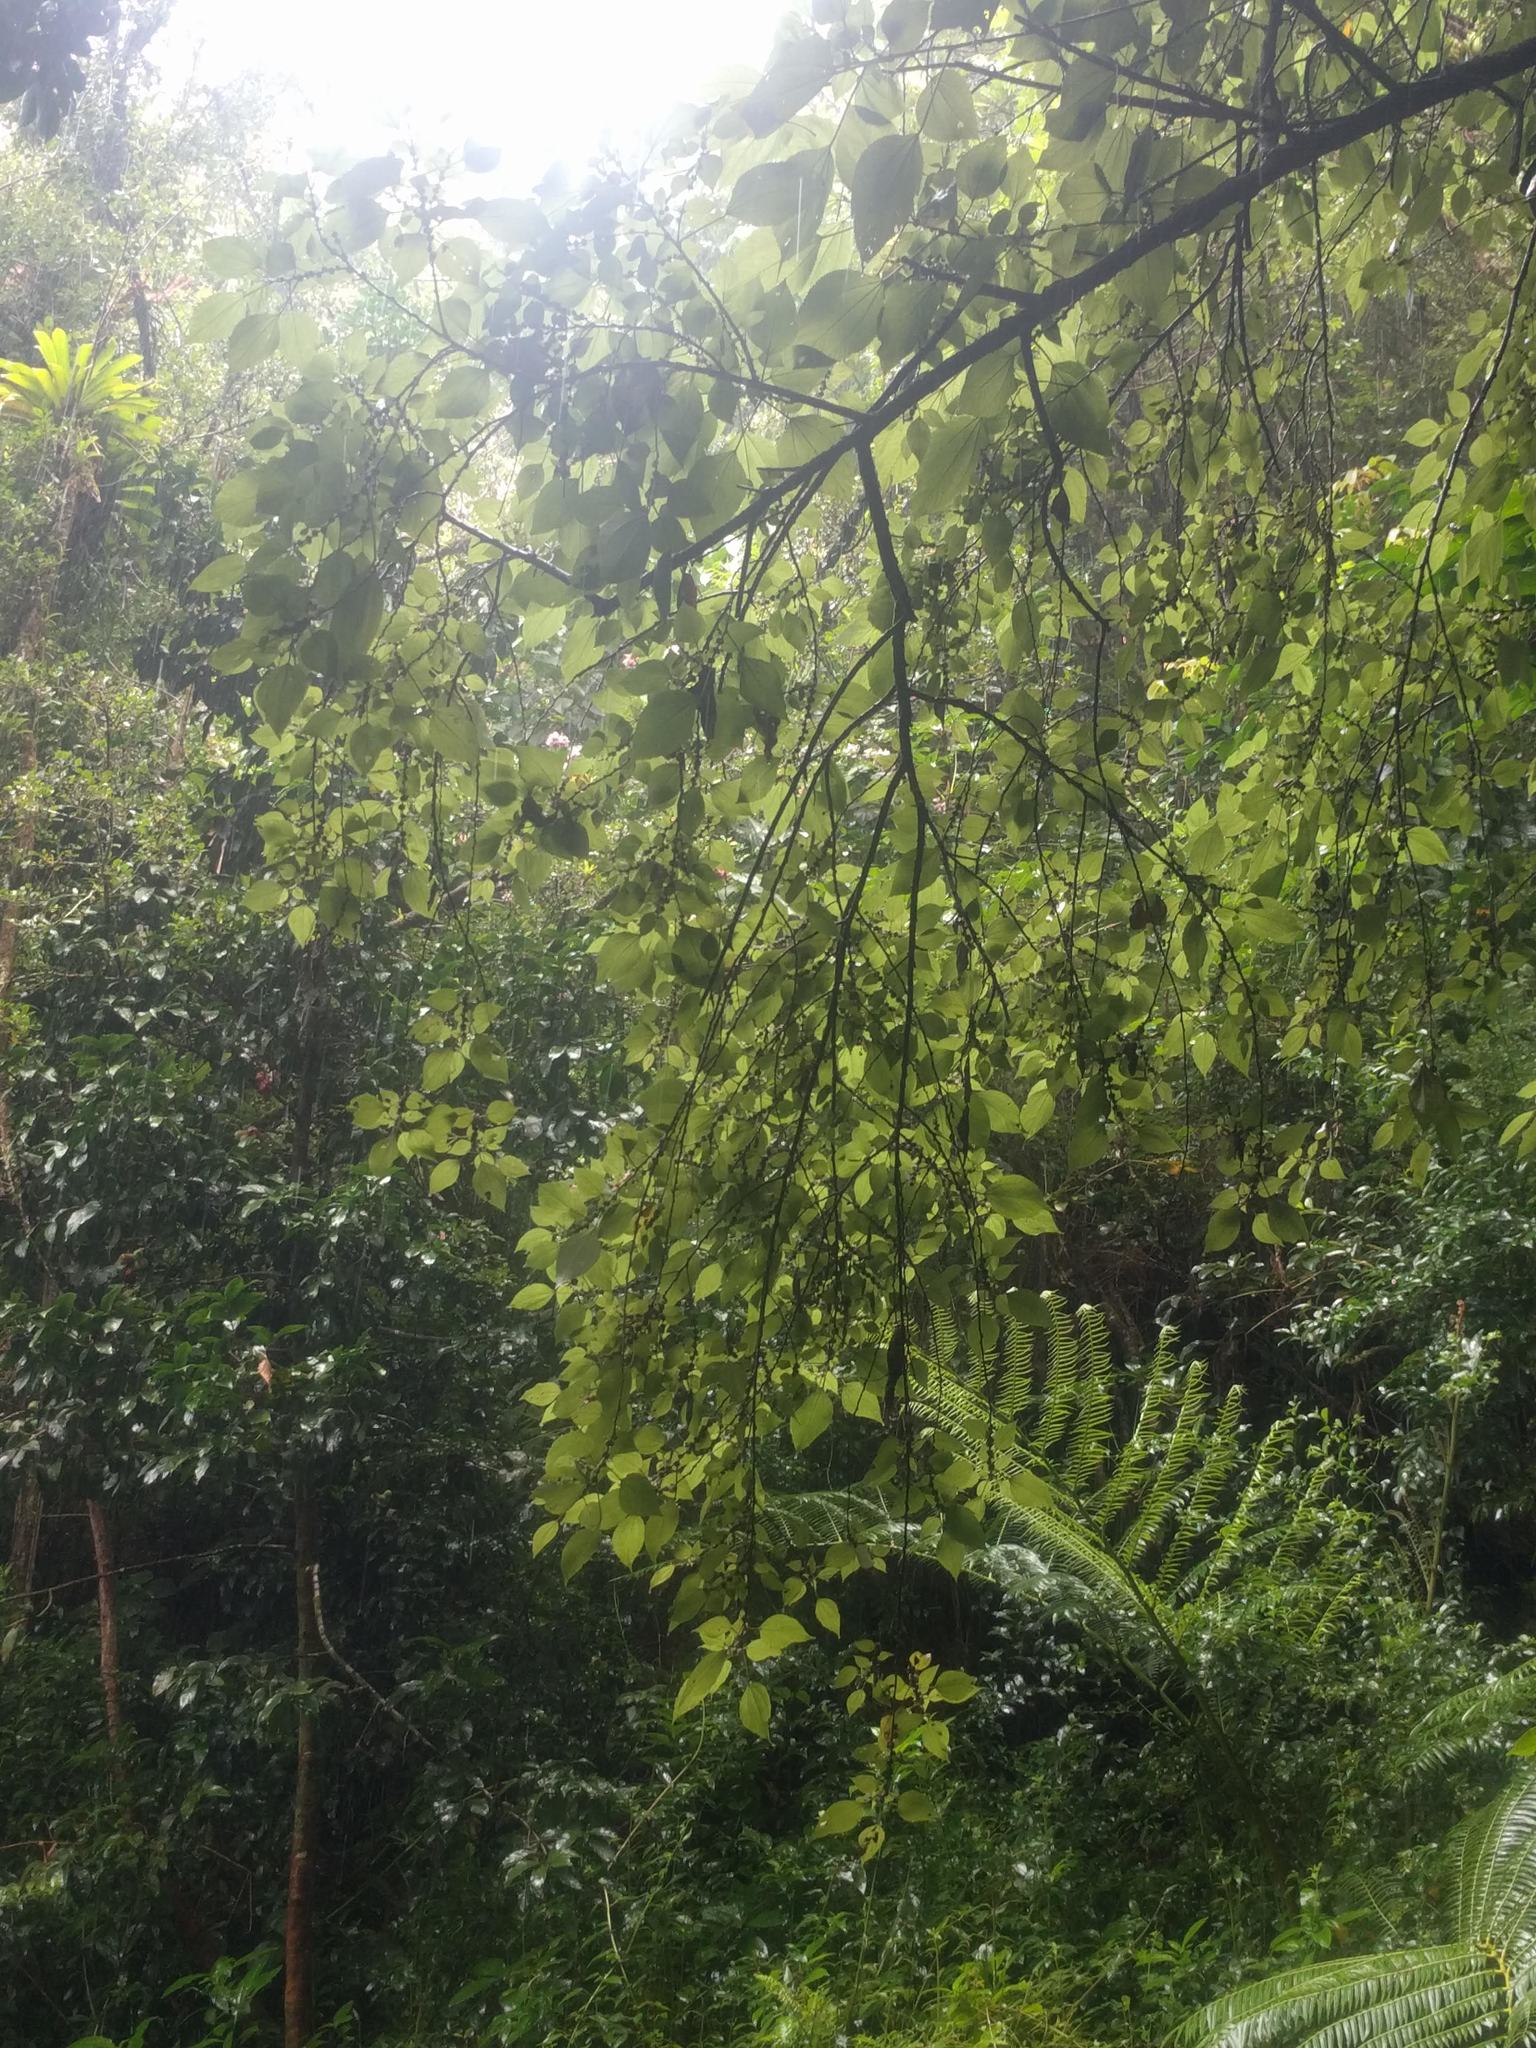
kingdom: Plantae
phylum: Tracheophyta
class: Magnoliopsida
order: Rosales
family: Urticaceae
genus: Pipturus
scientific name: Pipturus albidus
